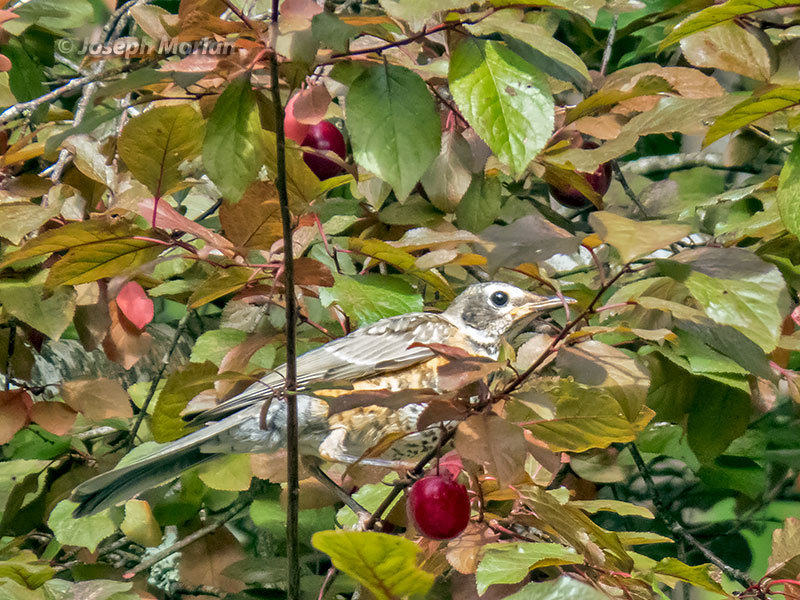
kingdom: Animalia
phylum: Chordata
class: Aves
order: Passeriformes
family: Turdidae
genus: Turdus
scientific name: Turdus migratorius
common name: American robin
